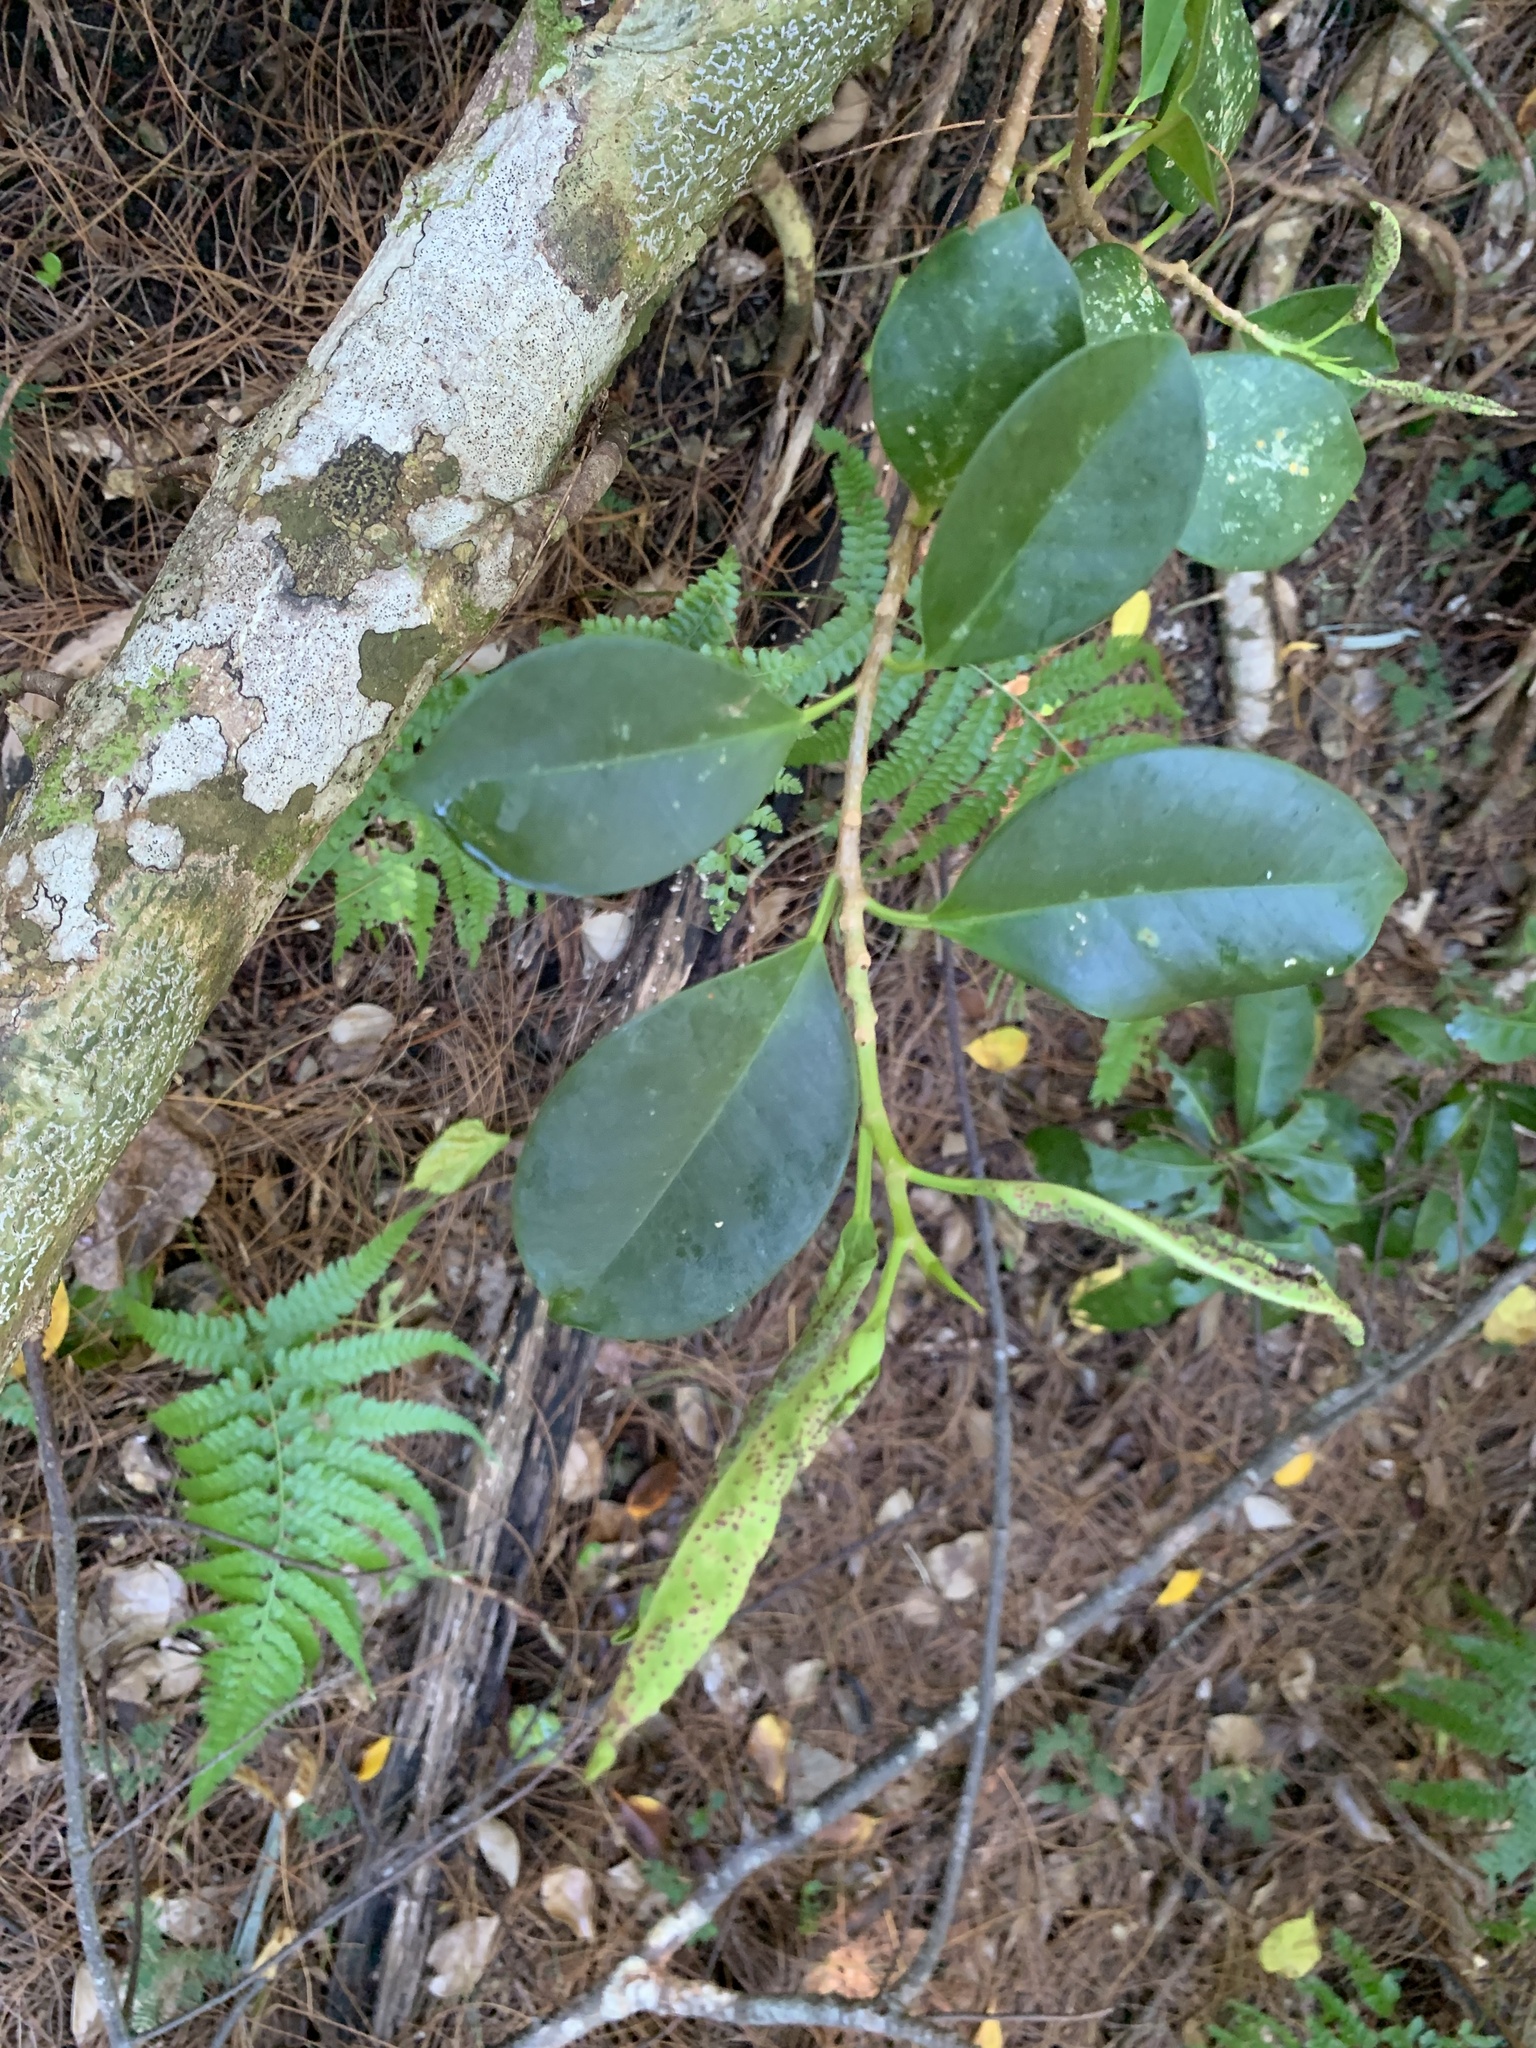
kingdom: Plantae
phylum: Tracheophyta
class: Magnoliopsida
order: Rosales
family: Moraceae
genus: Ficus
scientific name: Ficus microcarpa
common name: Chinese banyan
